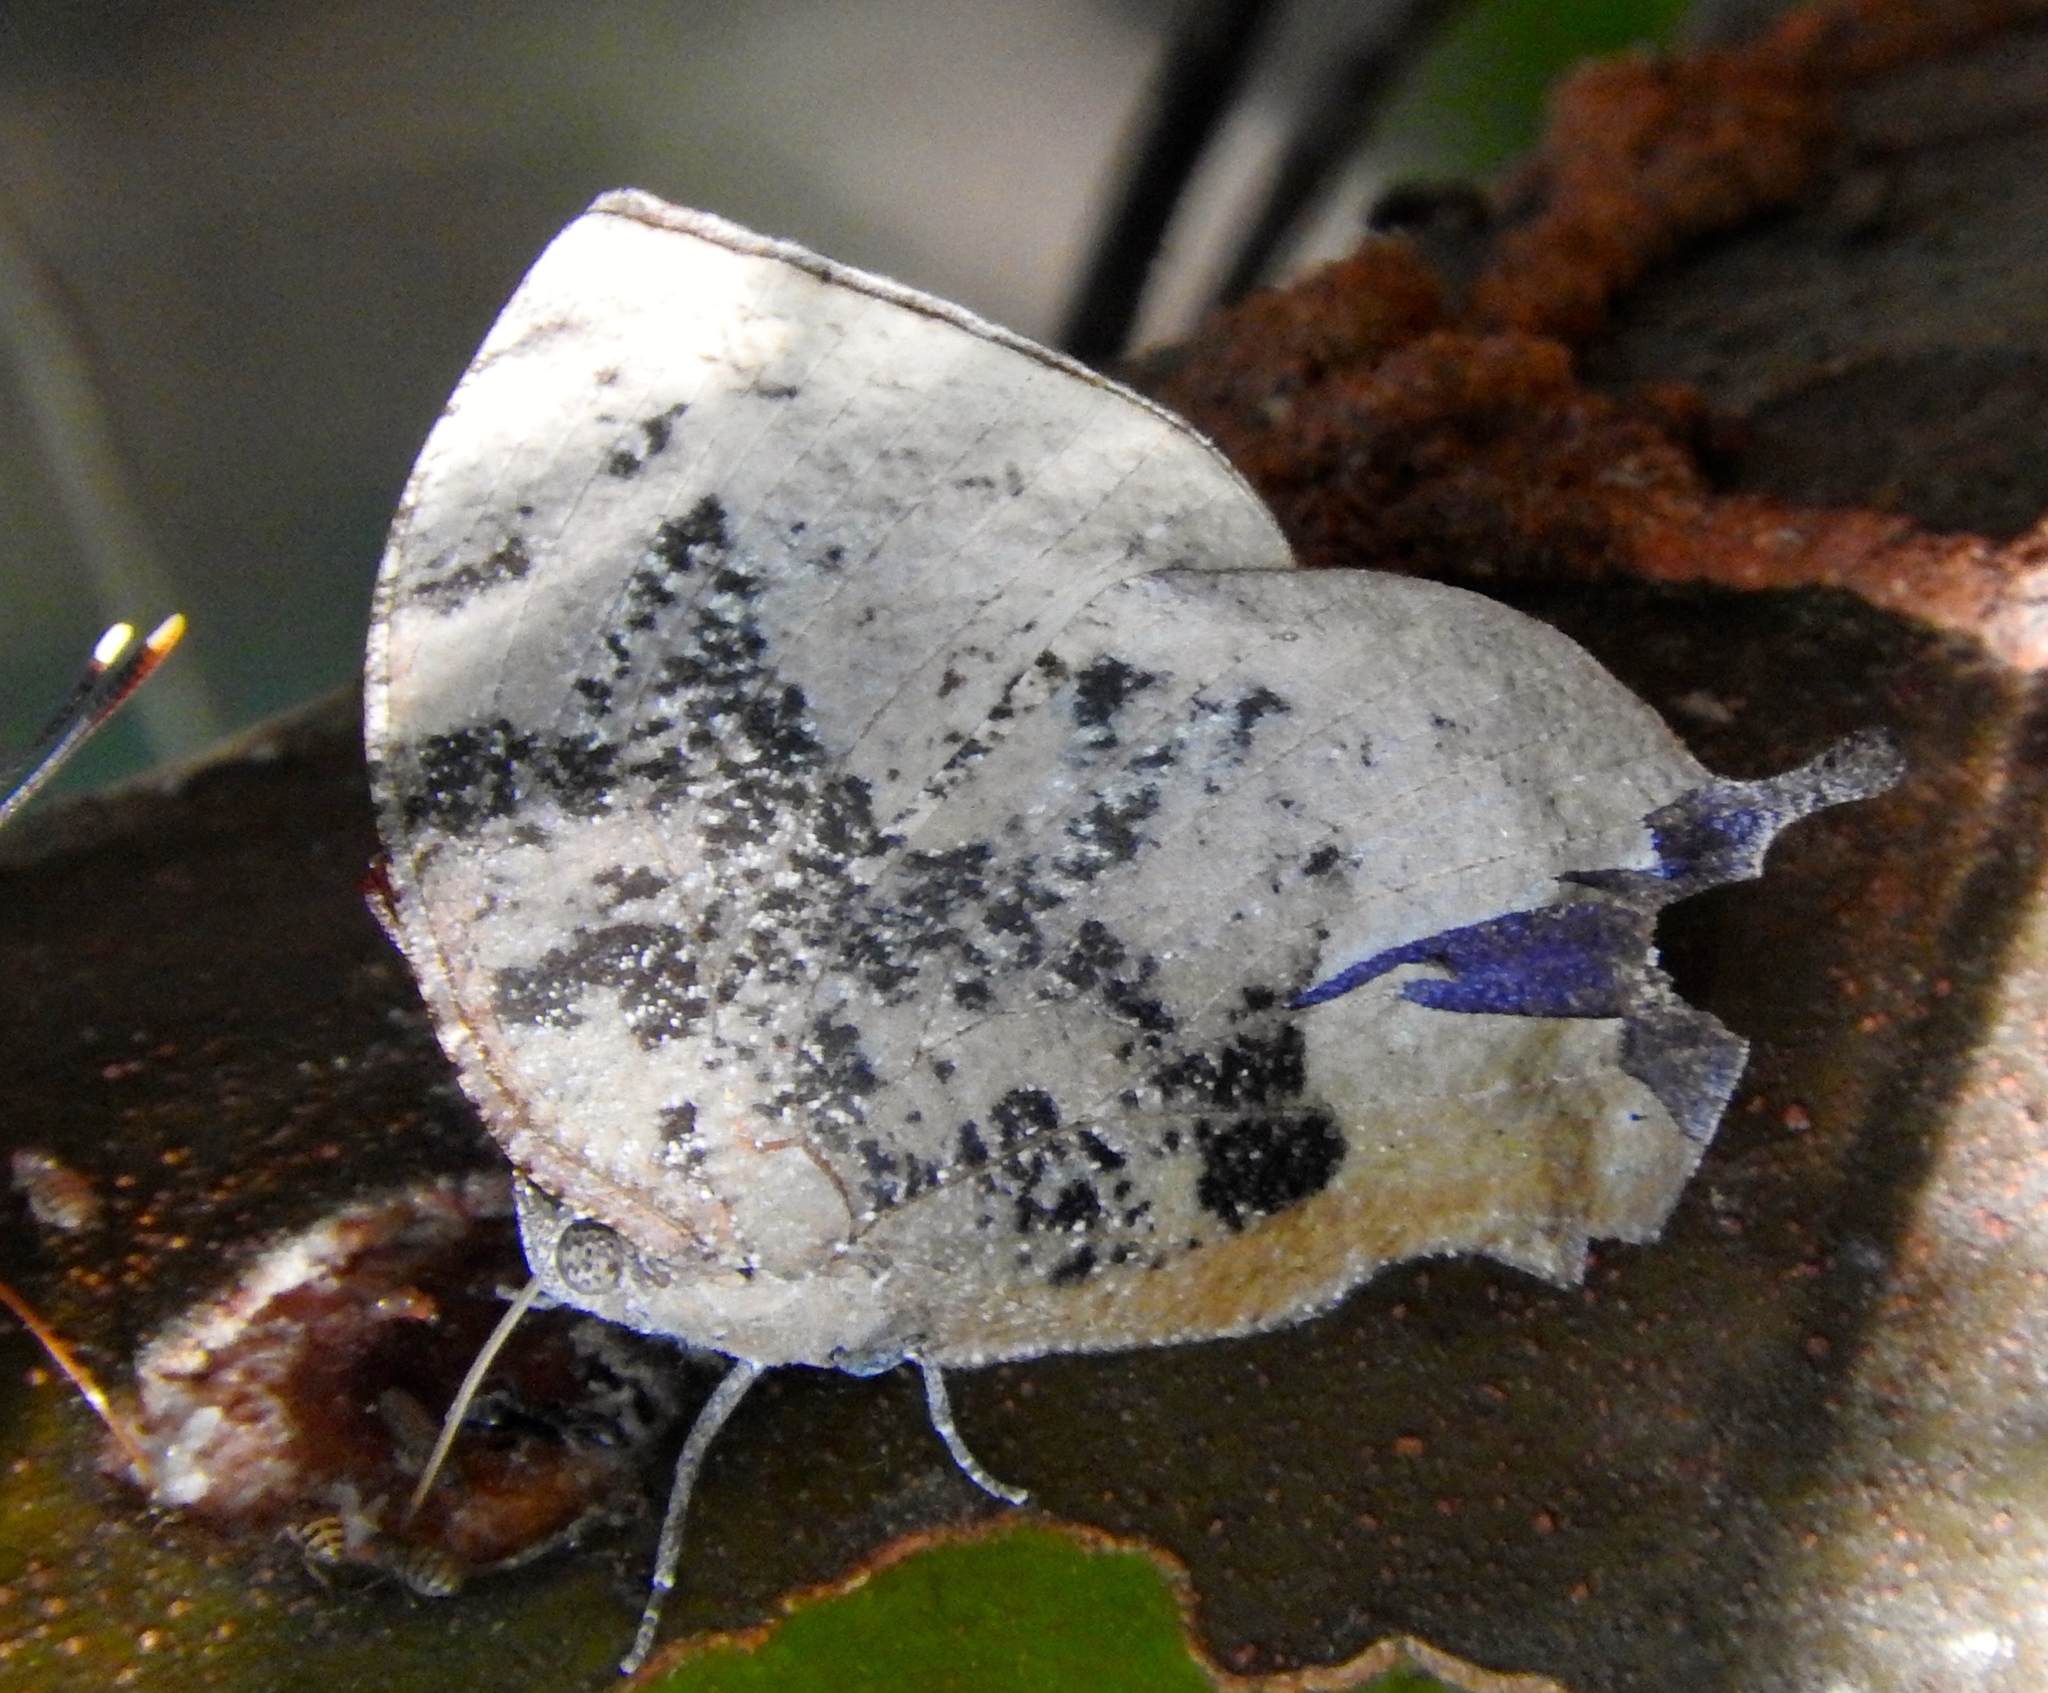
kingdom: Animalia
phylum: Arthropoda
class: Insecta
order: Lepidoptera
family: Nymphalidae
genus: Memphis
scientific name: Memphis
